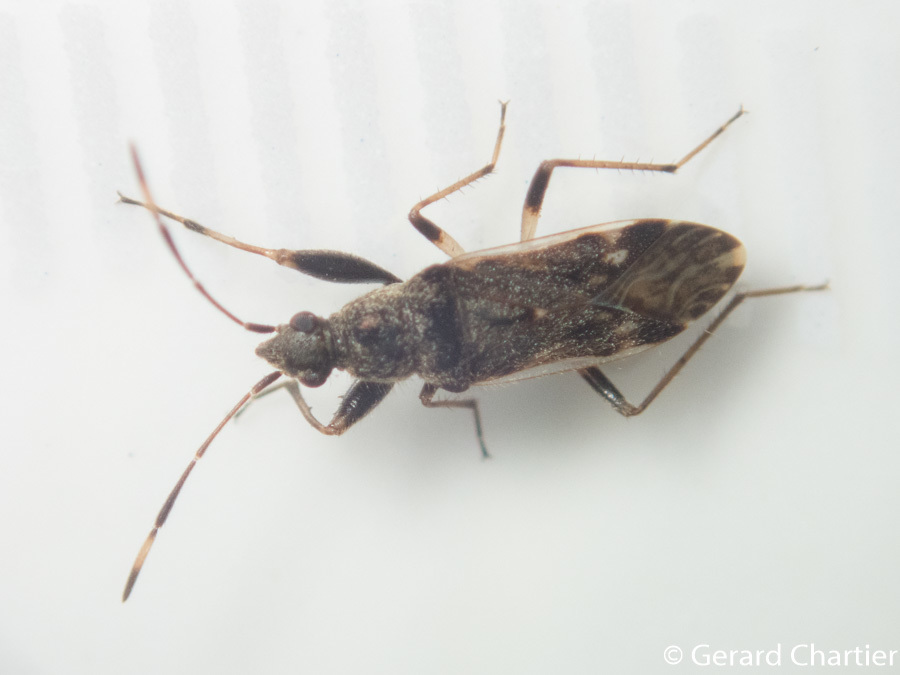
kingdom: Animalia
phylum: Arthropoda
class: Insecta
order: Hemiptera
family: Rhyparochromidae
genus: Horridipamera
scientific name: Horridipamera nietneri
